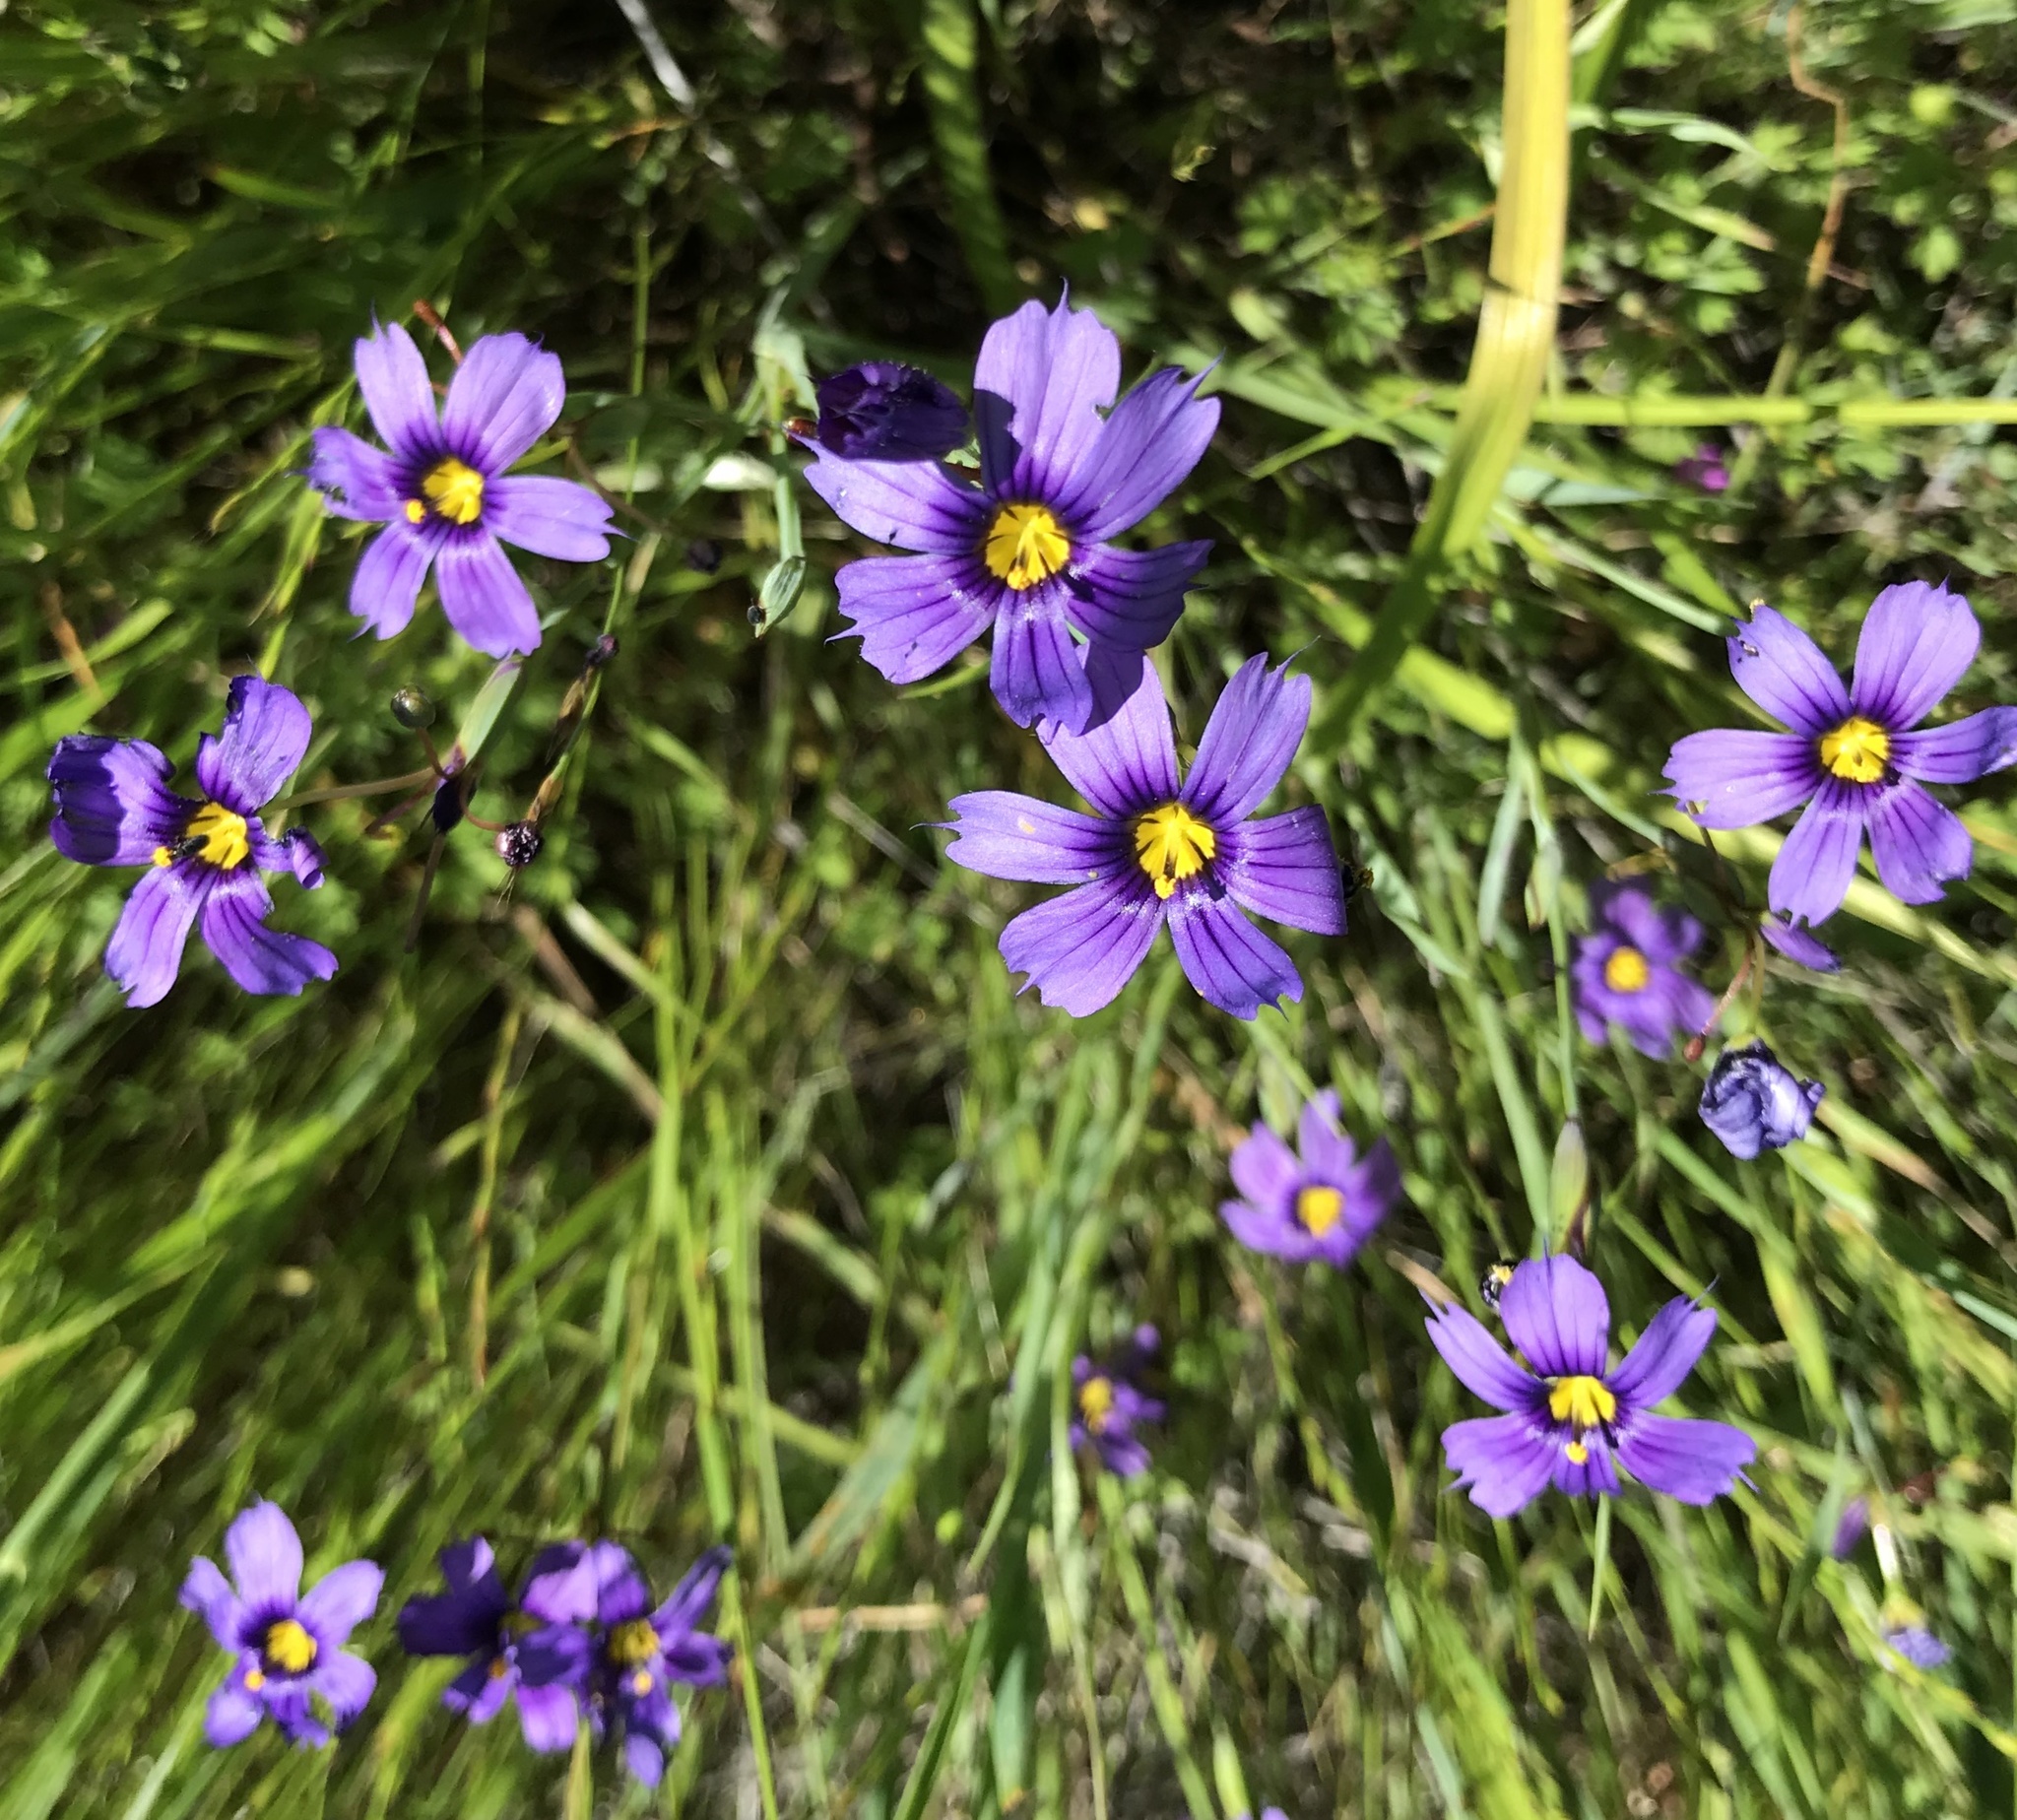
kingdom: Plantae
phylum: Tracheophyta
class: Liliopsida
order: Asparagales
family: Iridaceae
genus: Sisyrinchium
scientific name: Sisyrinchium bellum
